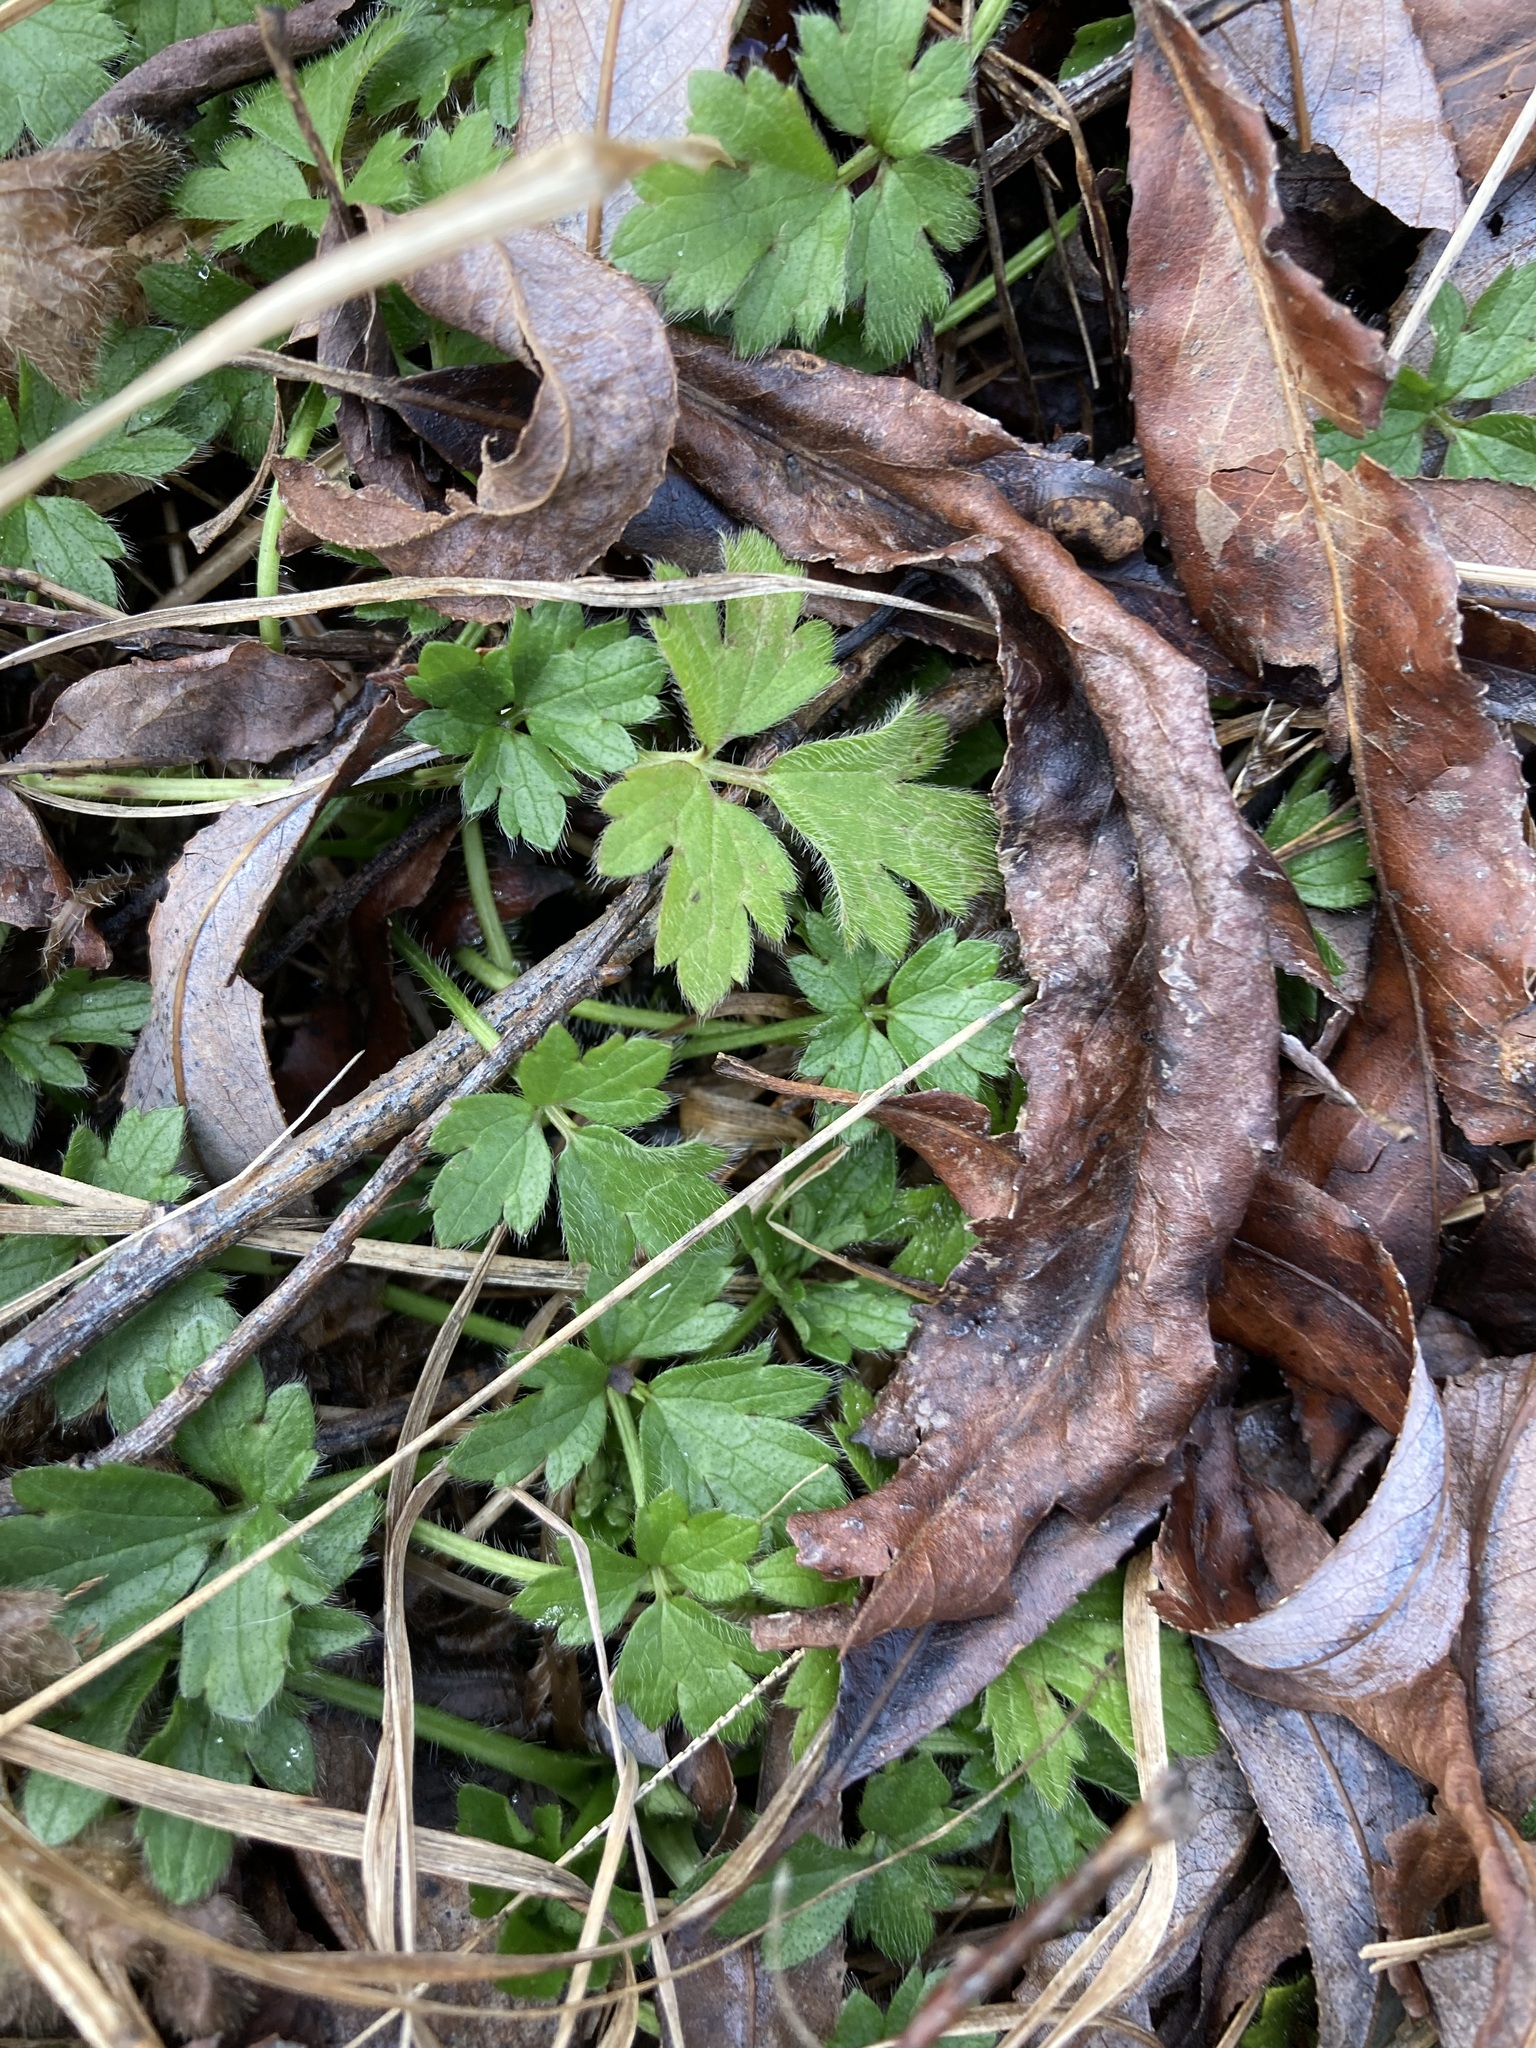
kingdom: Plantae
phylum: Tracheophyta
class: Magnoliopsida
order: Ranunculales
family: Ranunculaceae
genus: Ranunculus
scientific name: Ranunculus repens
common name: Creeping buttercup
